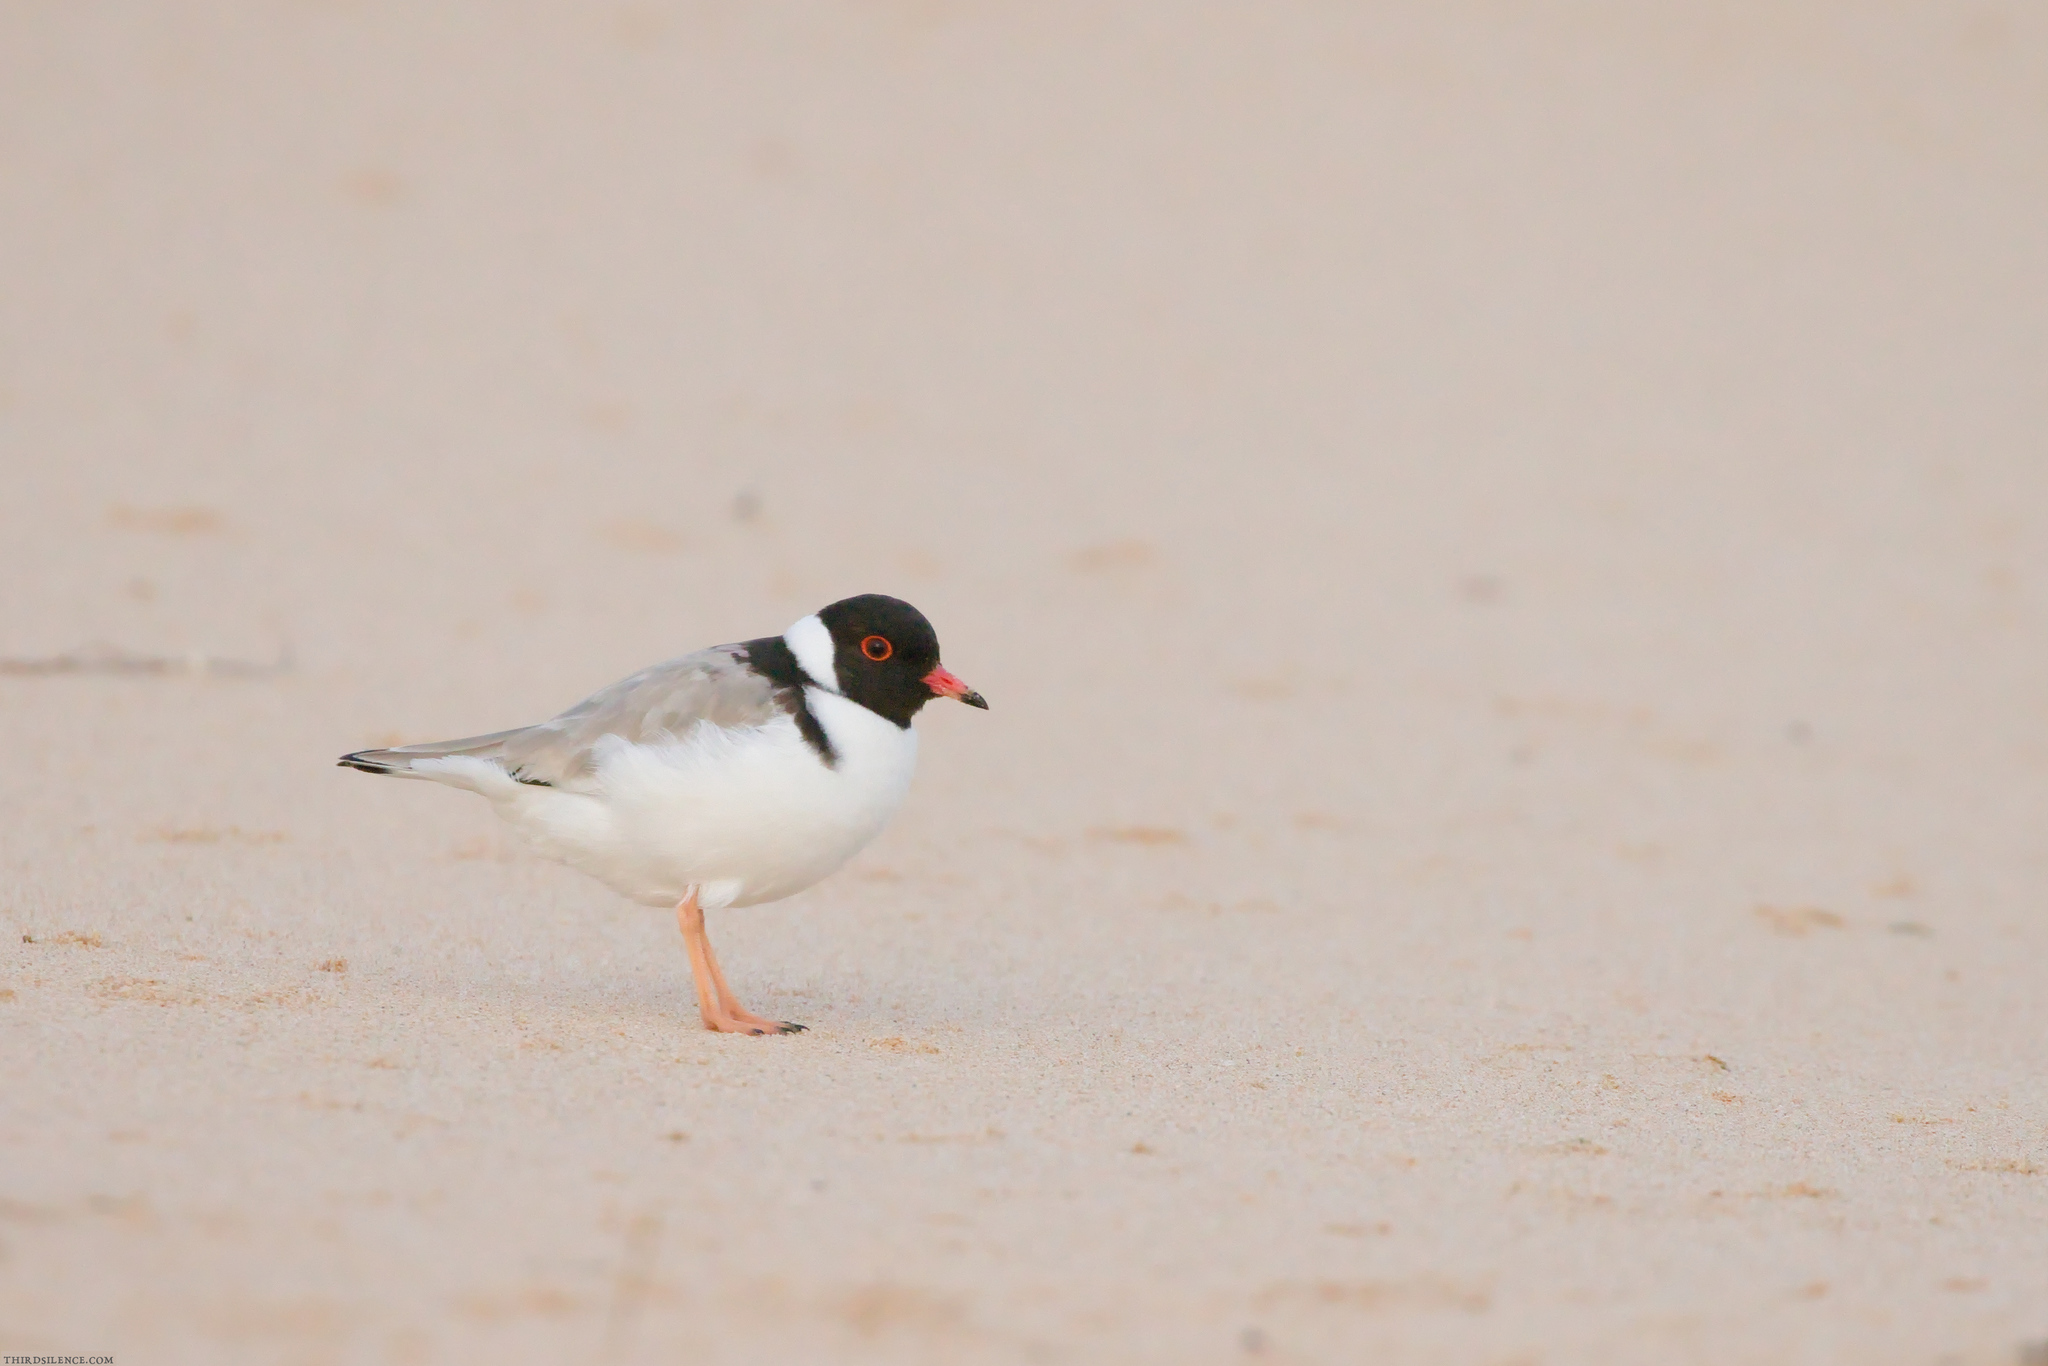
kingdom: Animalia
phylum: Chordata
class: Aves
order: Charadriiformes
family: Charadriidae
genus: Thinornis
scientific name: Thinornis cucullatus
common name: Hooded dotterel
